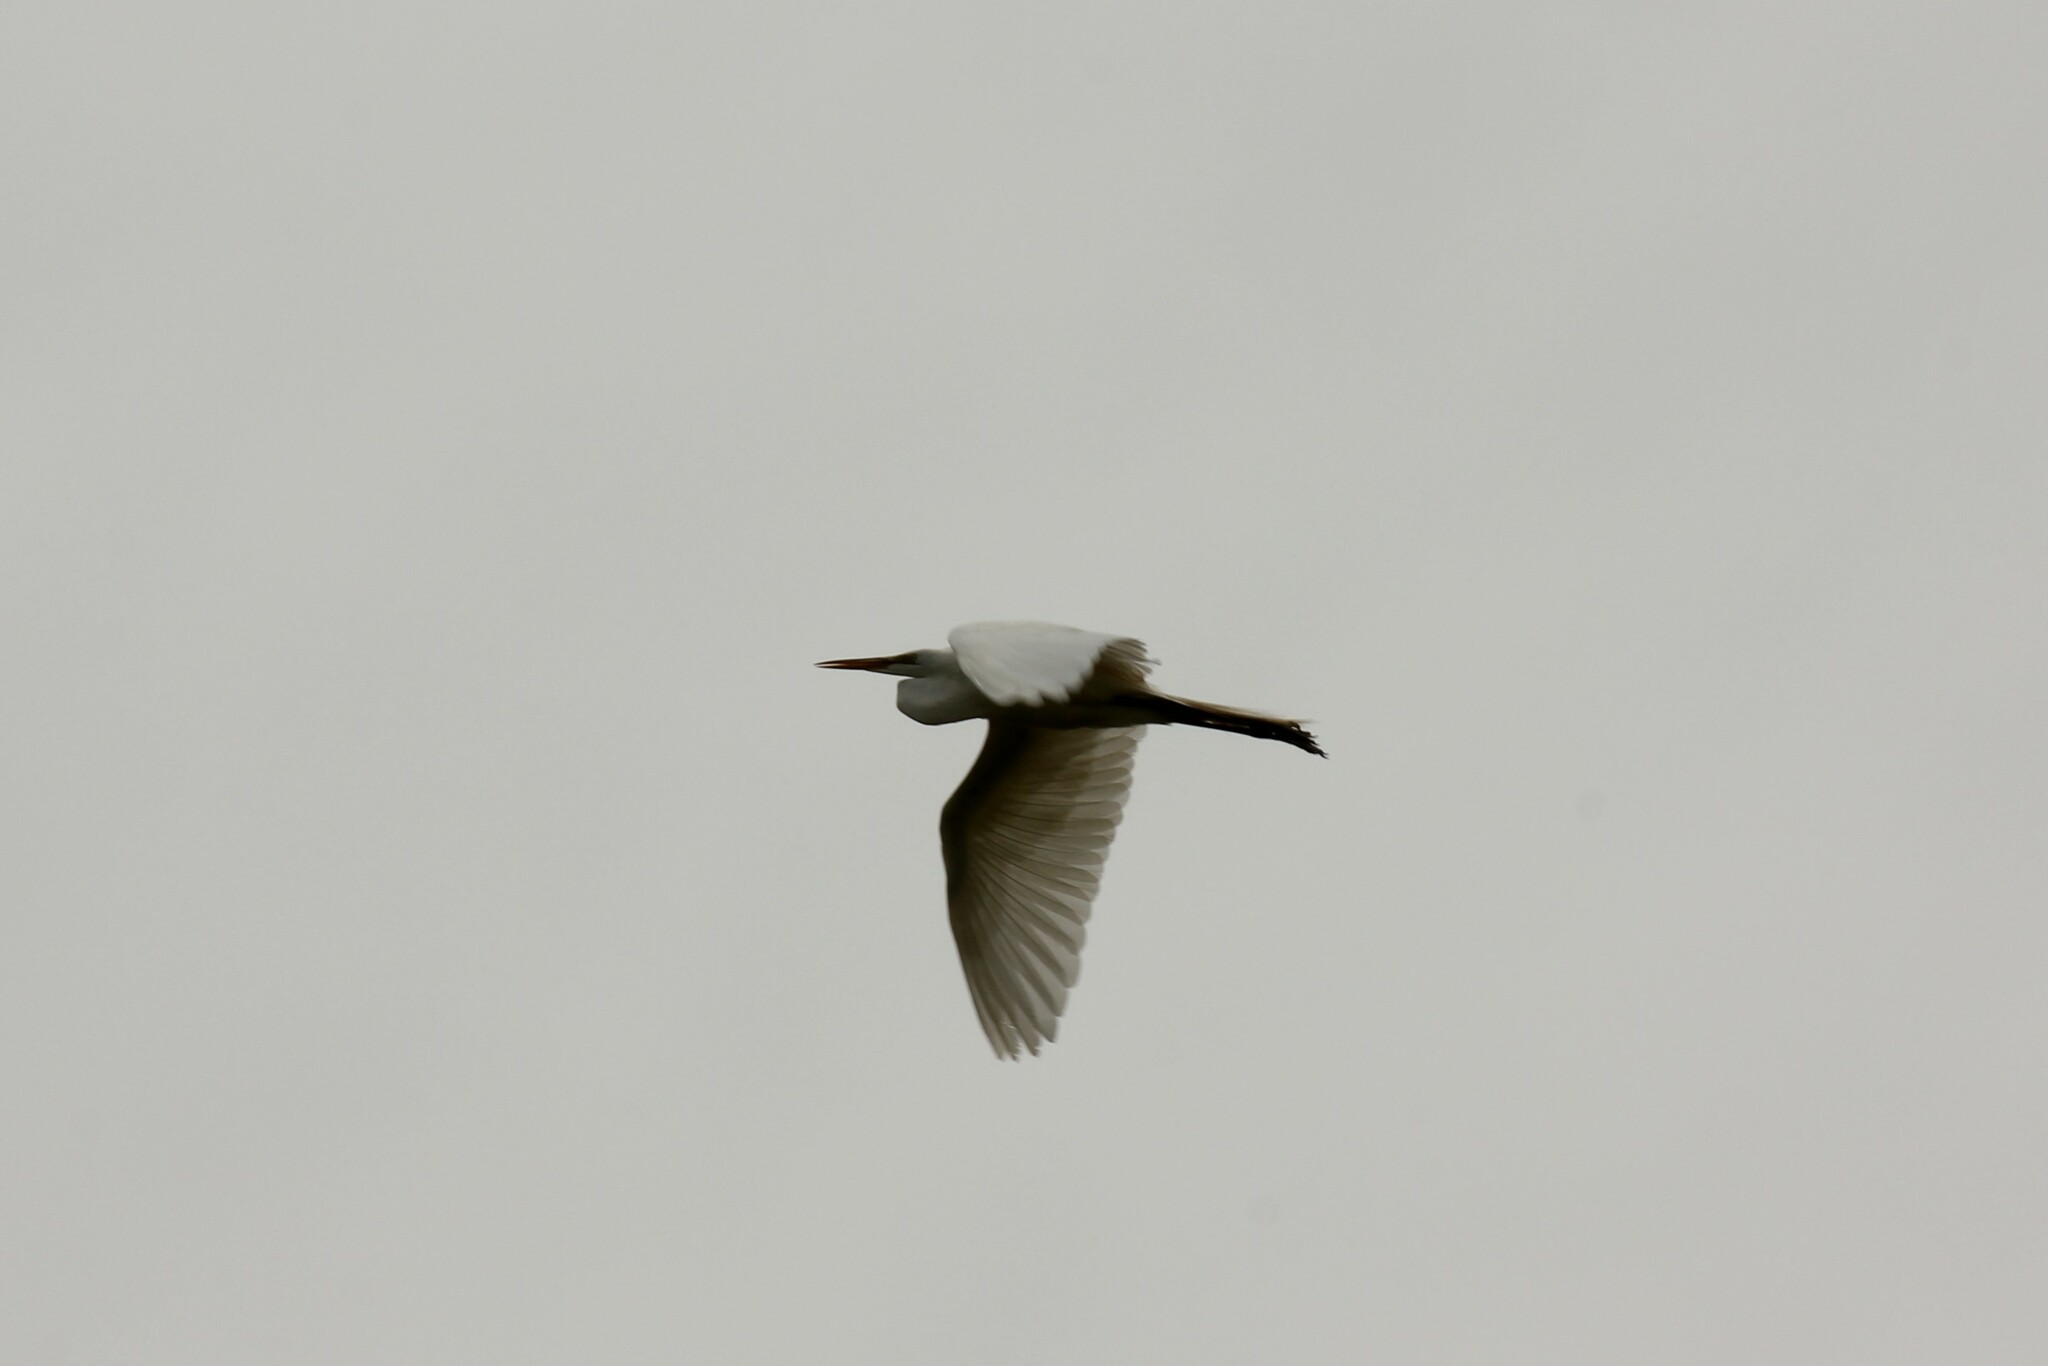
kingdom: Animalia
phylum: Chordata
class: Aves
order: Pelecaniformes
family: Ardeidae
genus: Ardea
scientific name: Ardea alba
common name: Great egret
